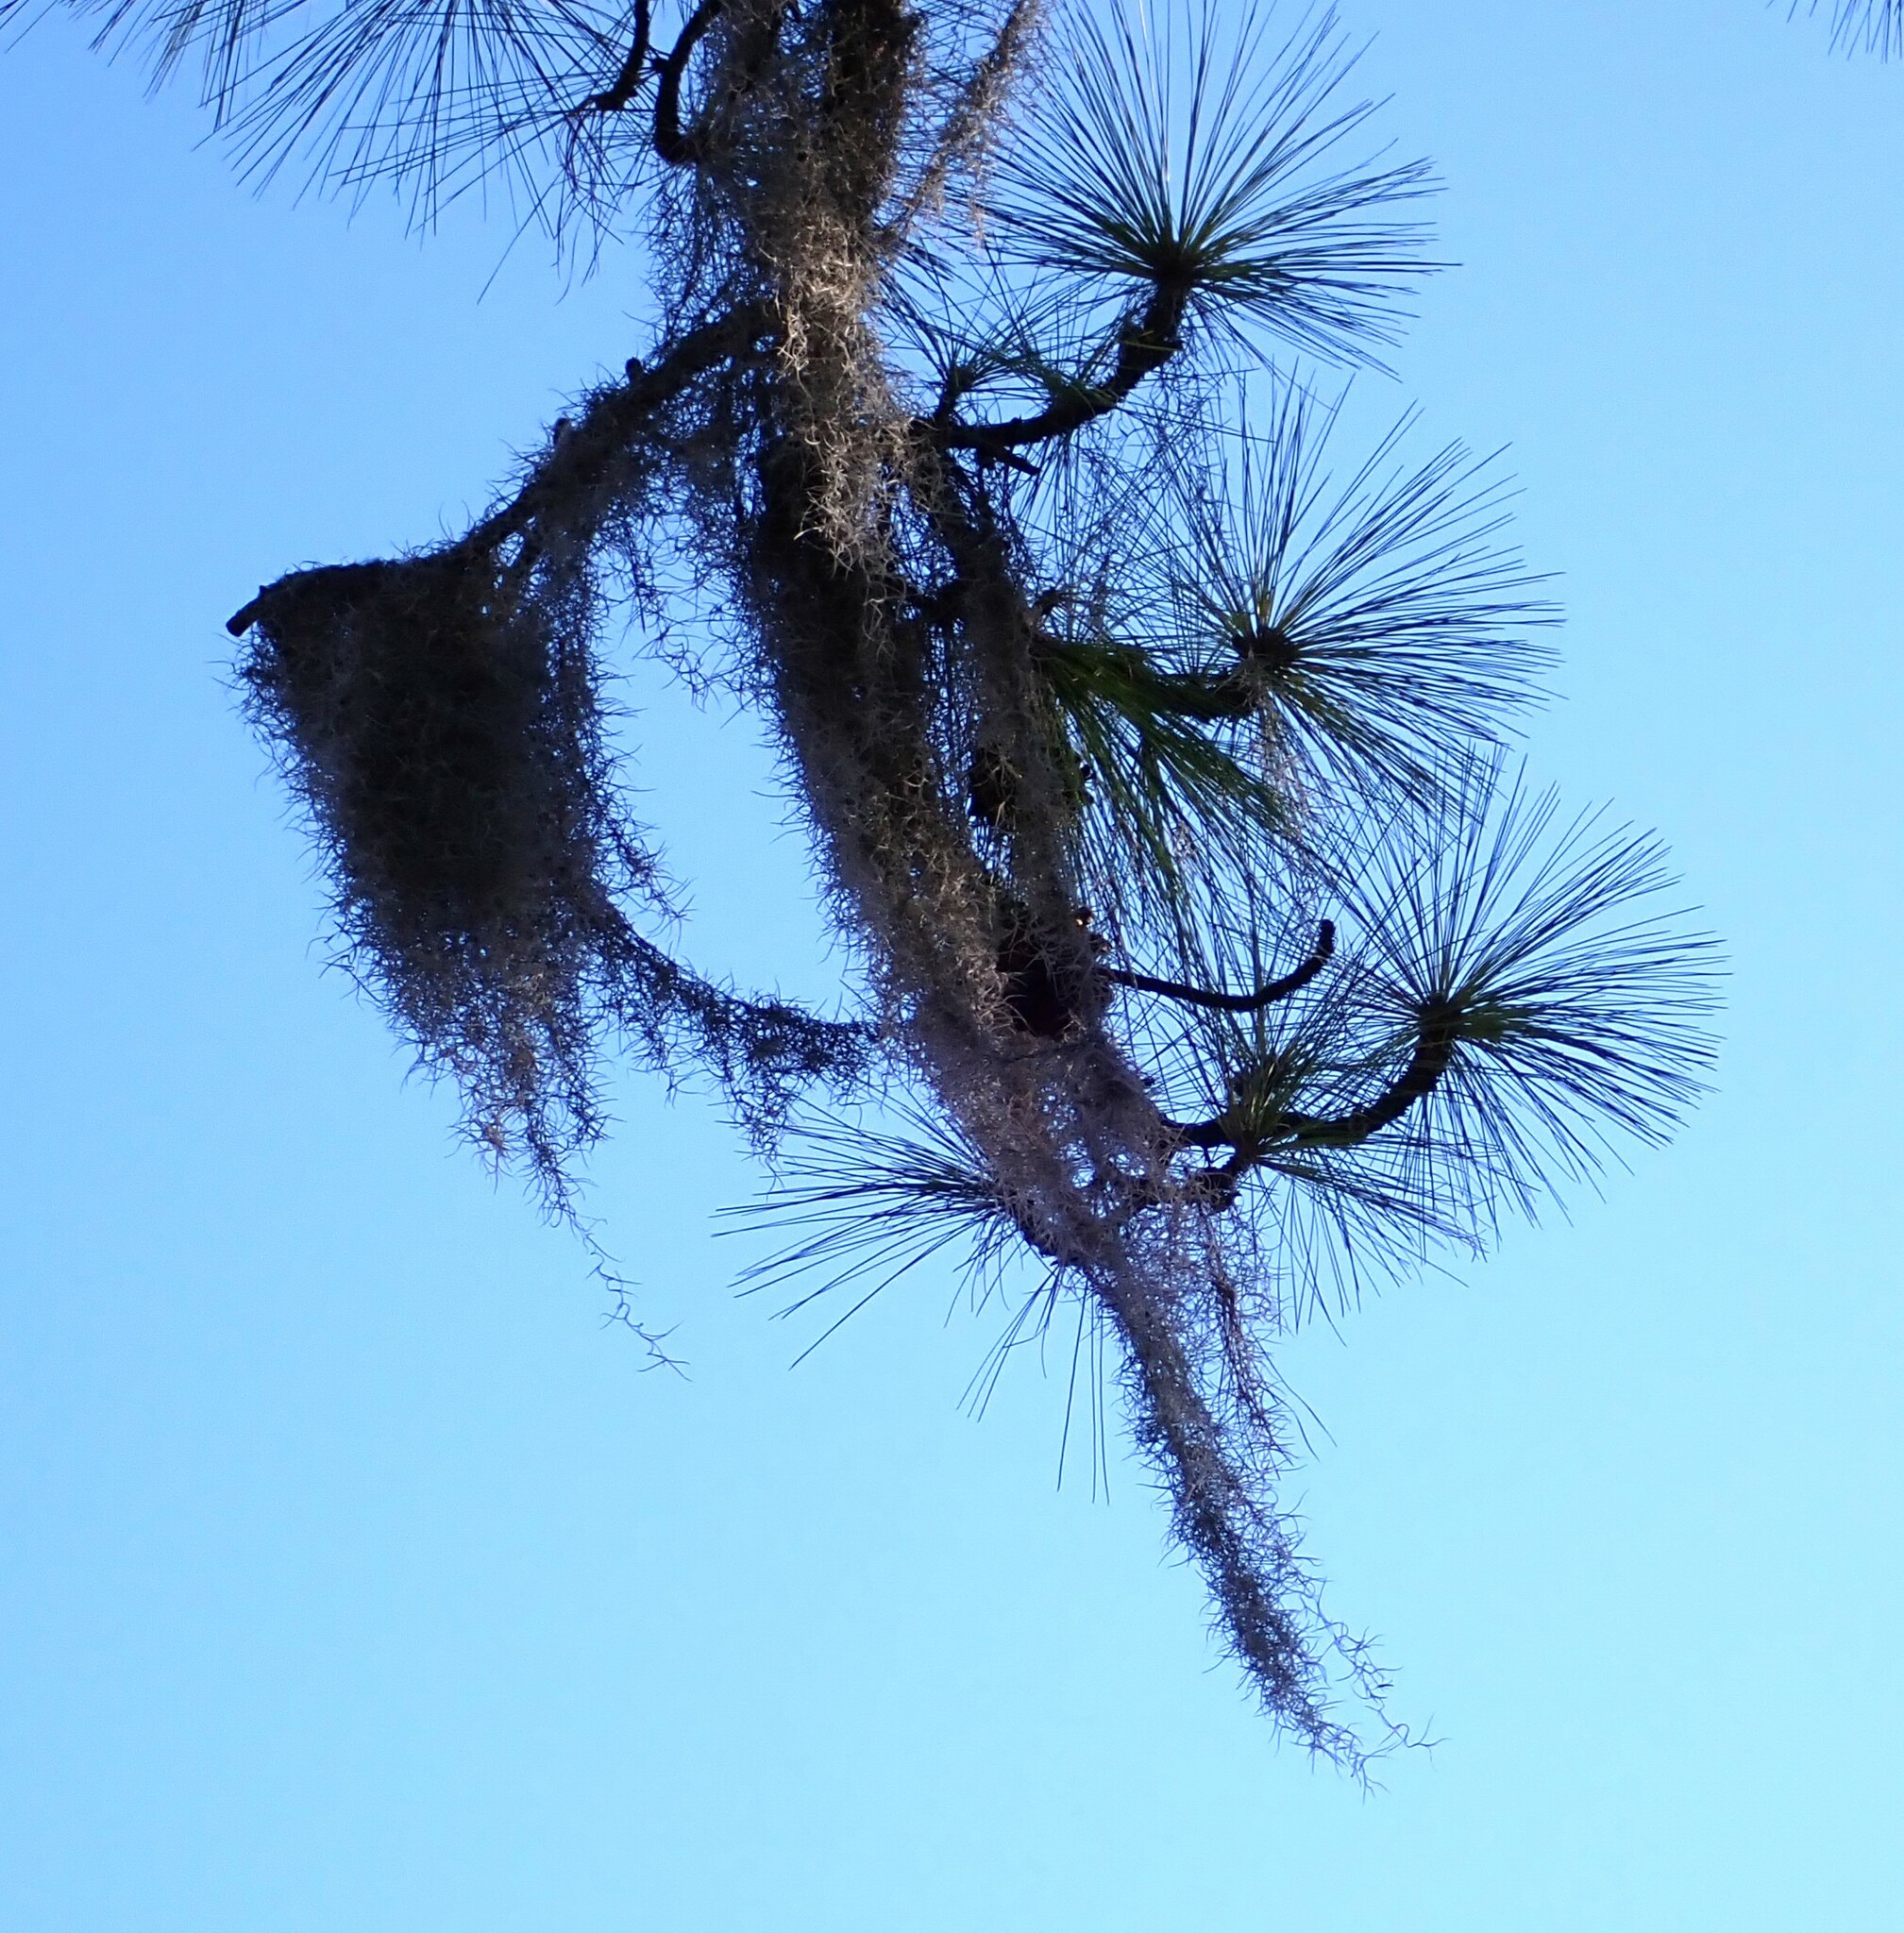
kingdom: Plantae
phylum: Tracheophyta
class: Liliopsida
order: Poales
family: Bromeliaceae
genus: Tillandsia
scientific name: Tillandsia usneoides
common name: Spanish moss
